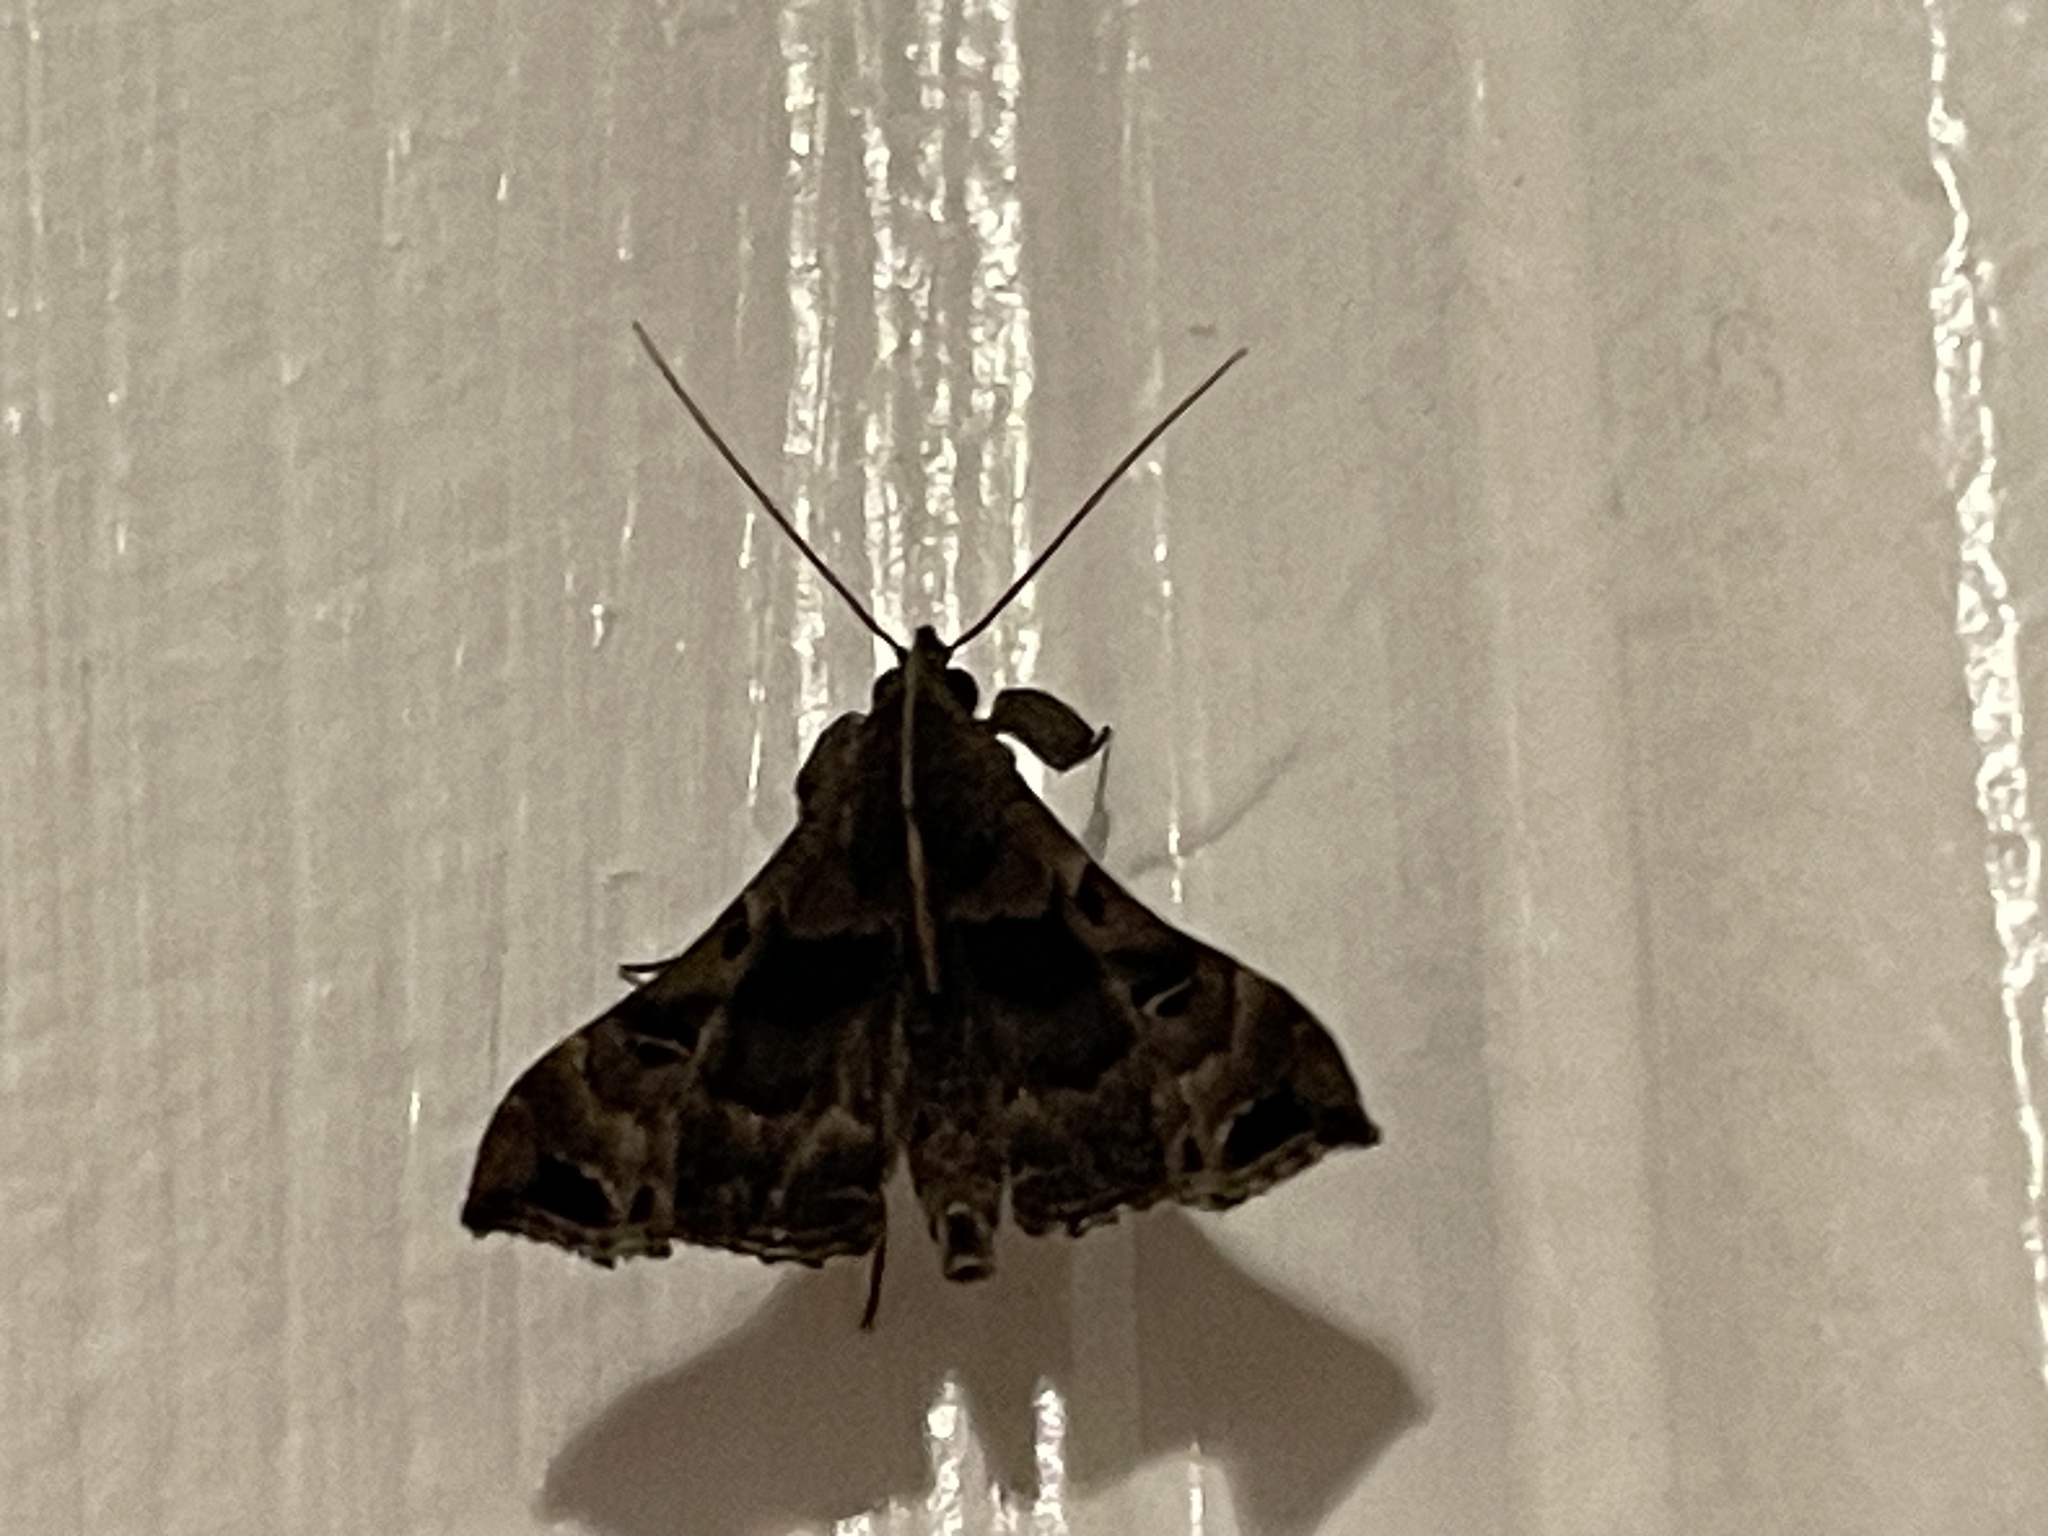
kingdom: Animalia
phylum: Arthropoda
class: Insecta
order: Lepidoptera
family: Erebidae
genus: Palthis
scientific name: Palthis asopialis
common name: Faint-spotted palthis moth
